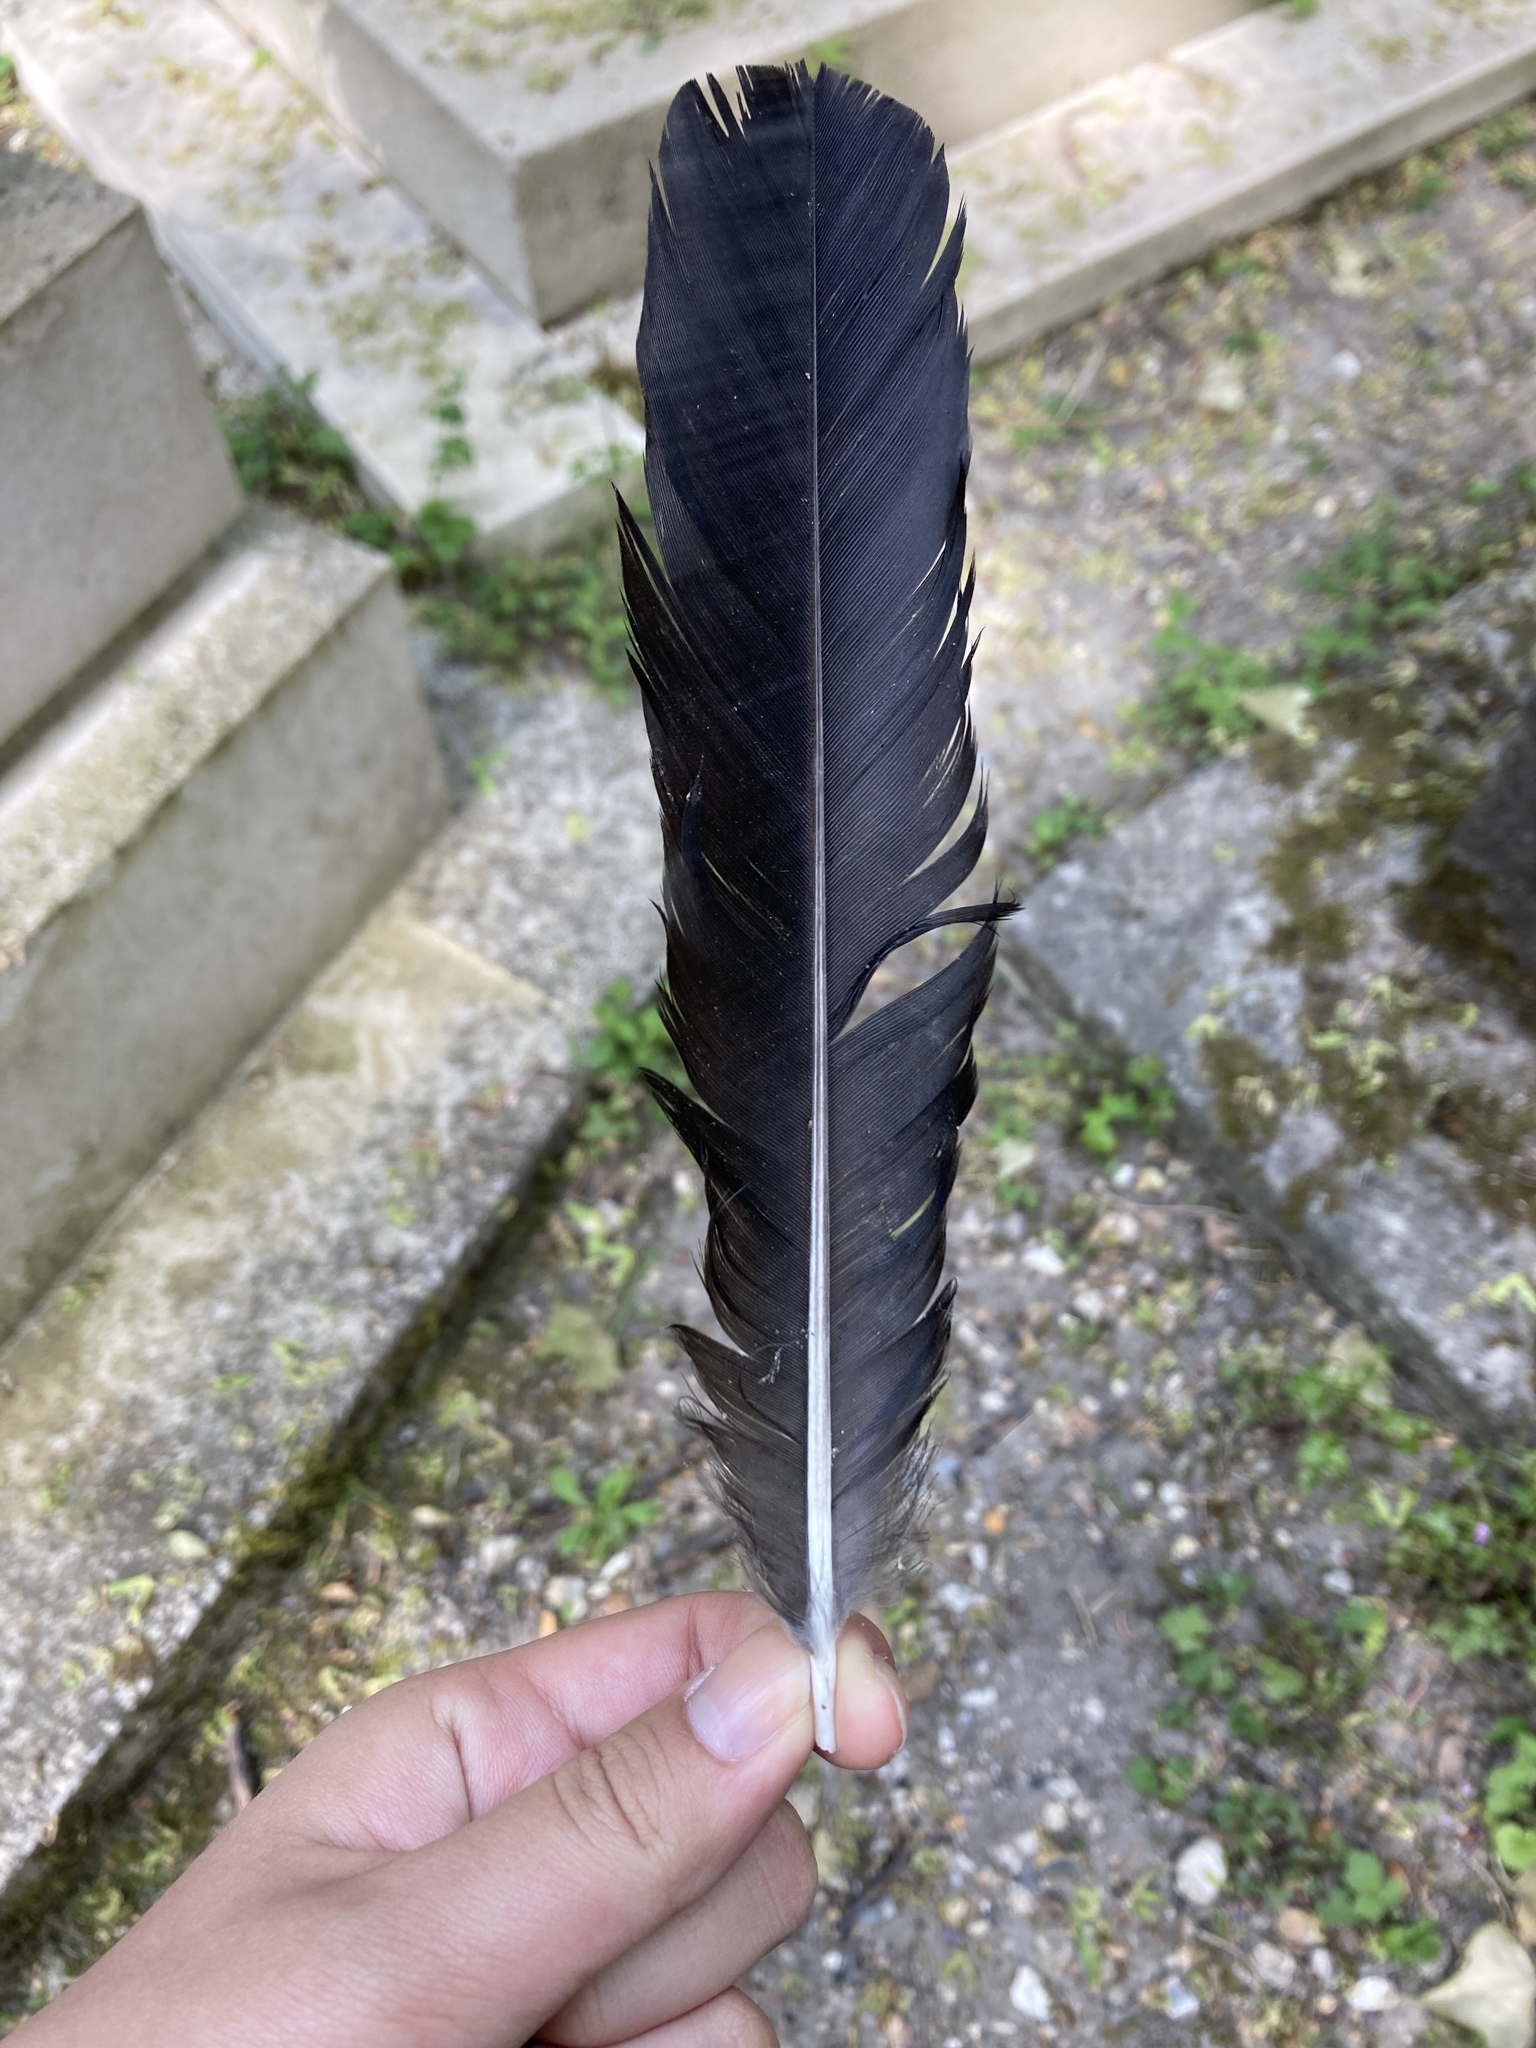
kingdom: Animalia
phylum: Chordata
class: Aves
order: Passeriformes
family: Corvidae
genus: Corvus
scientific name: Corvus corone
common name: Carrion crow
